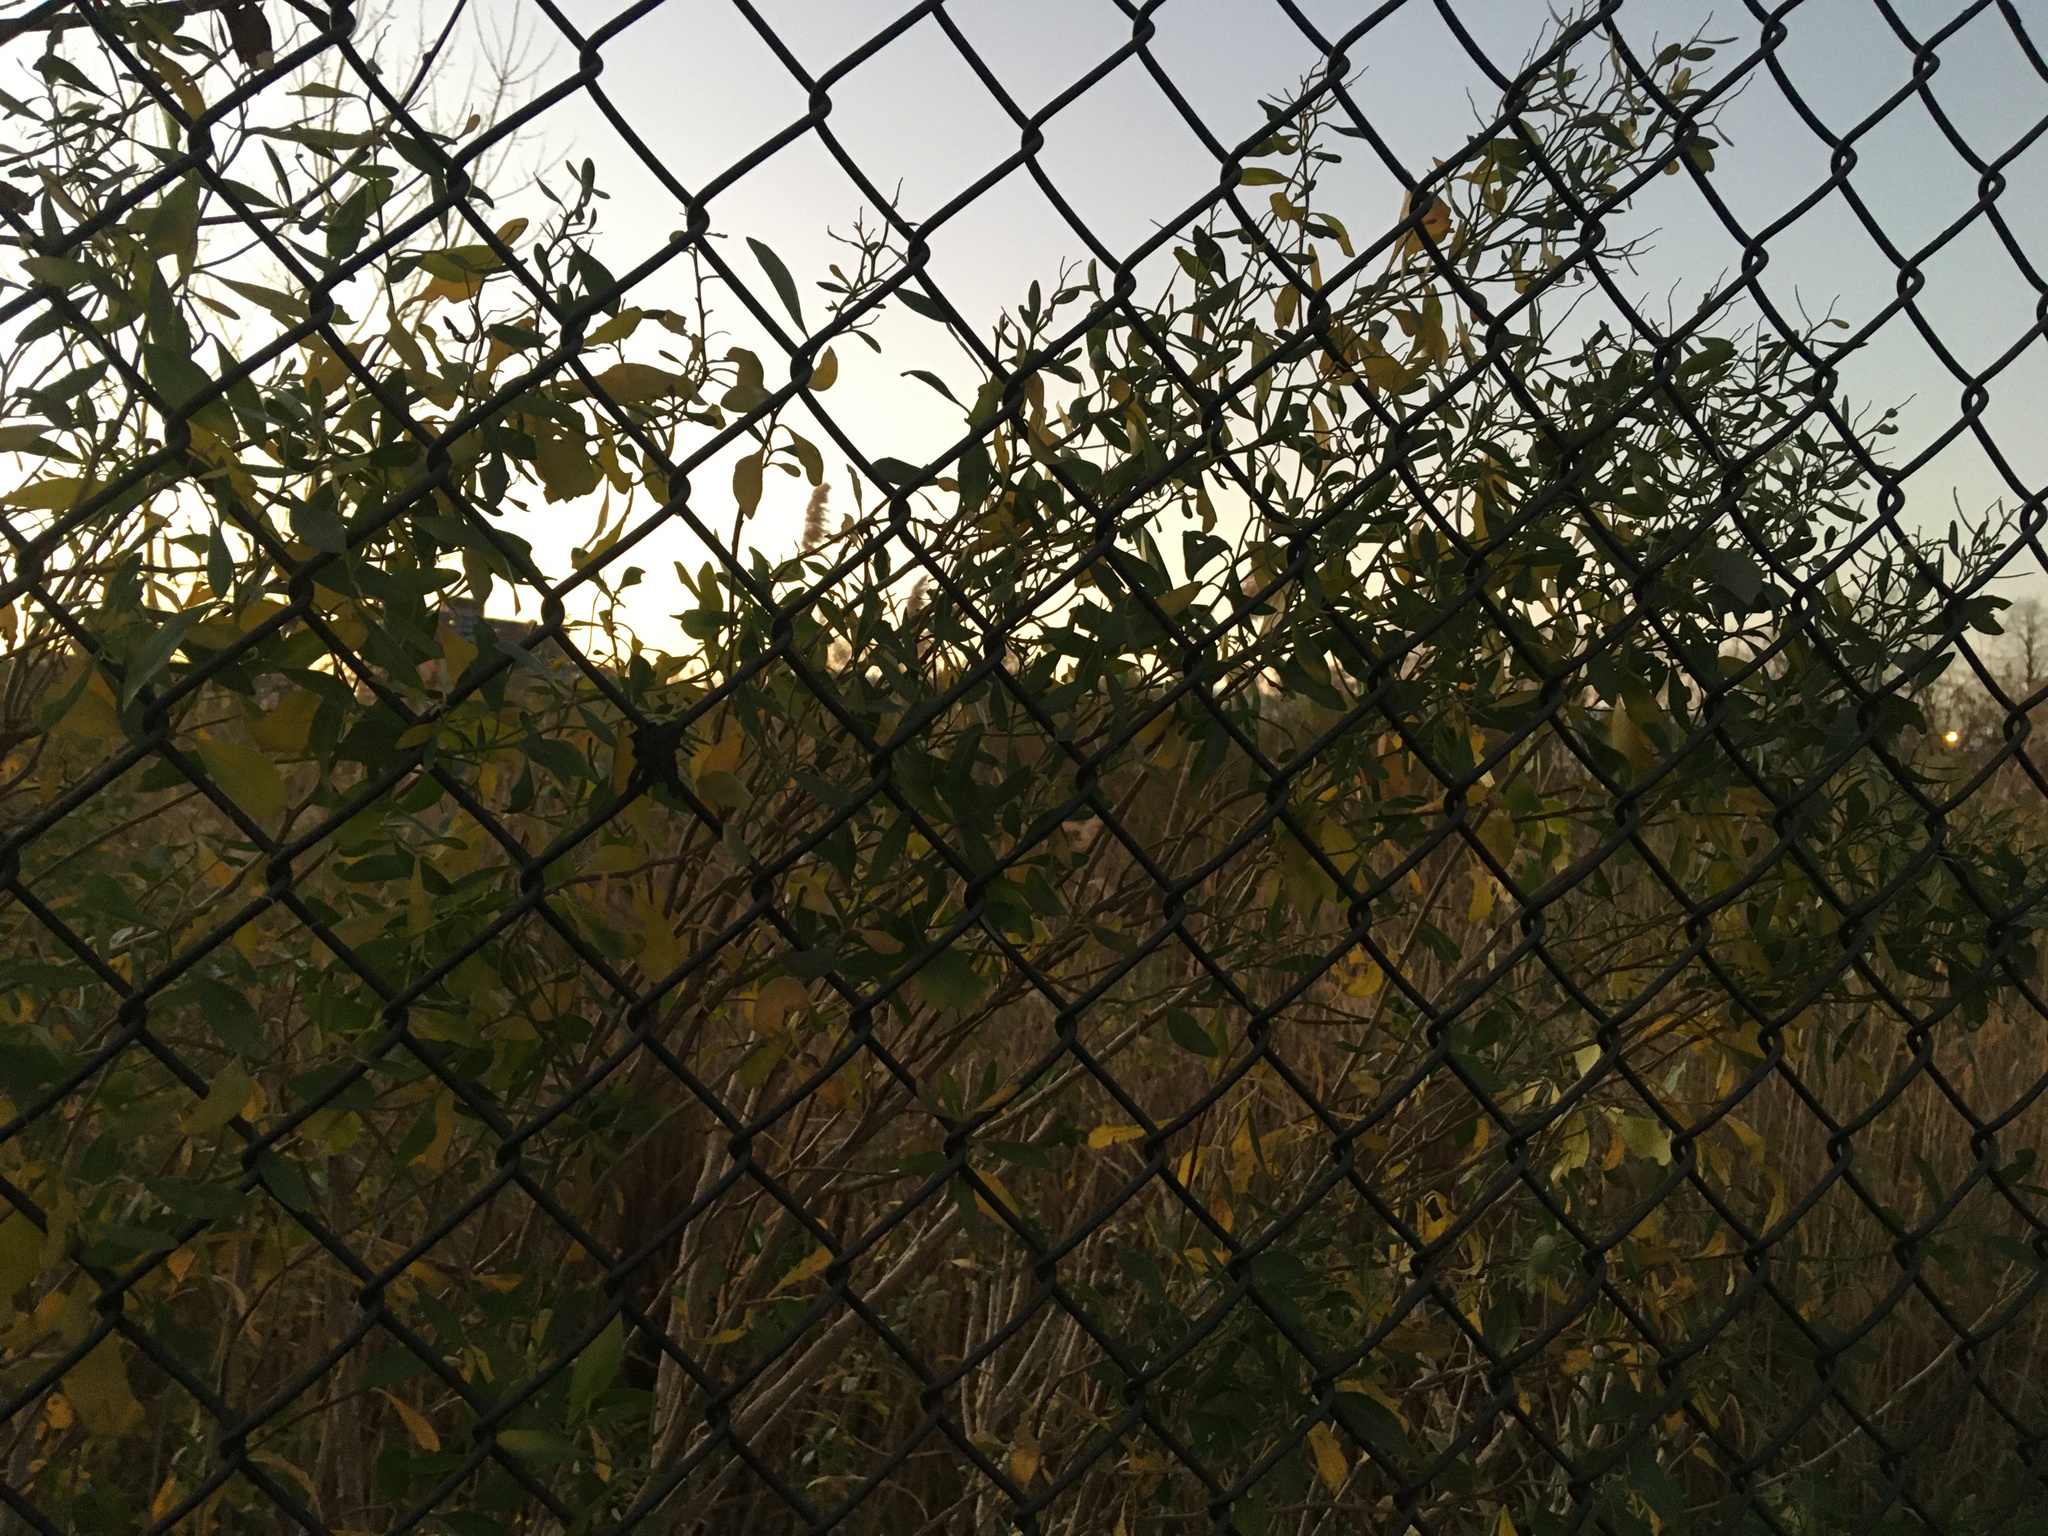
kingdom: Plantae
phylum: Tracheophyta
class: Magnoliopsida
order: Asterales
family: Asteraceae
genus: Baccharis
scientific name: Baccharis halimifolia
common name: Eastern baccharis
